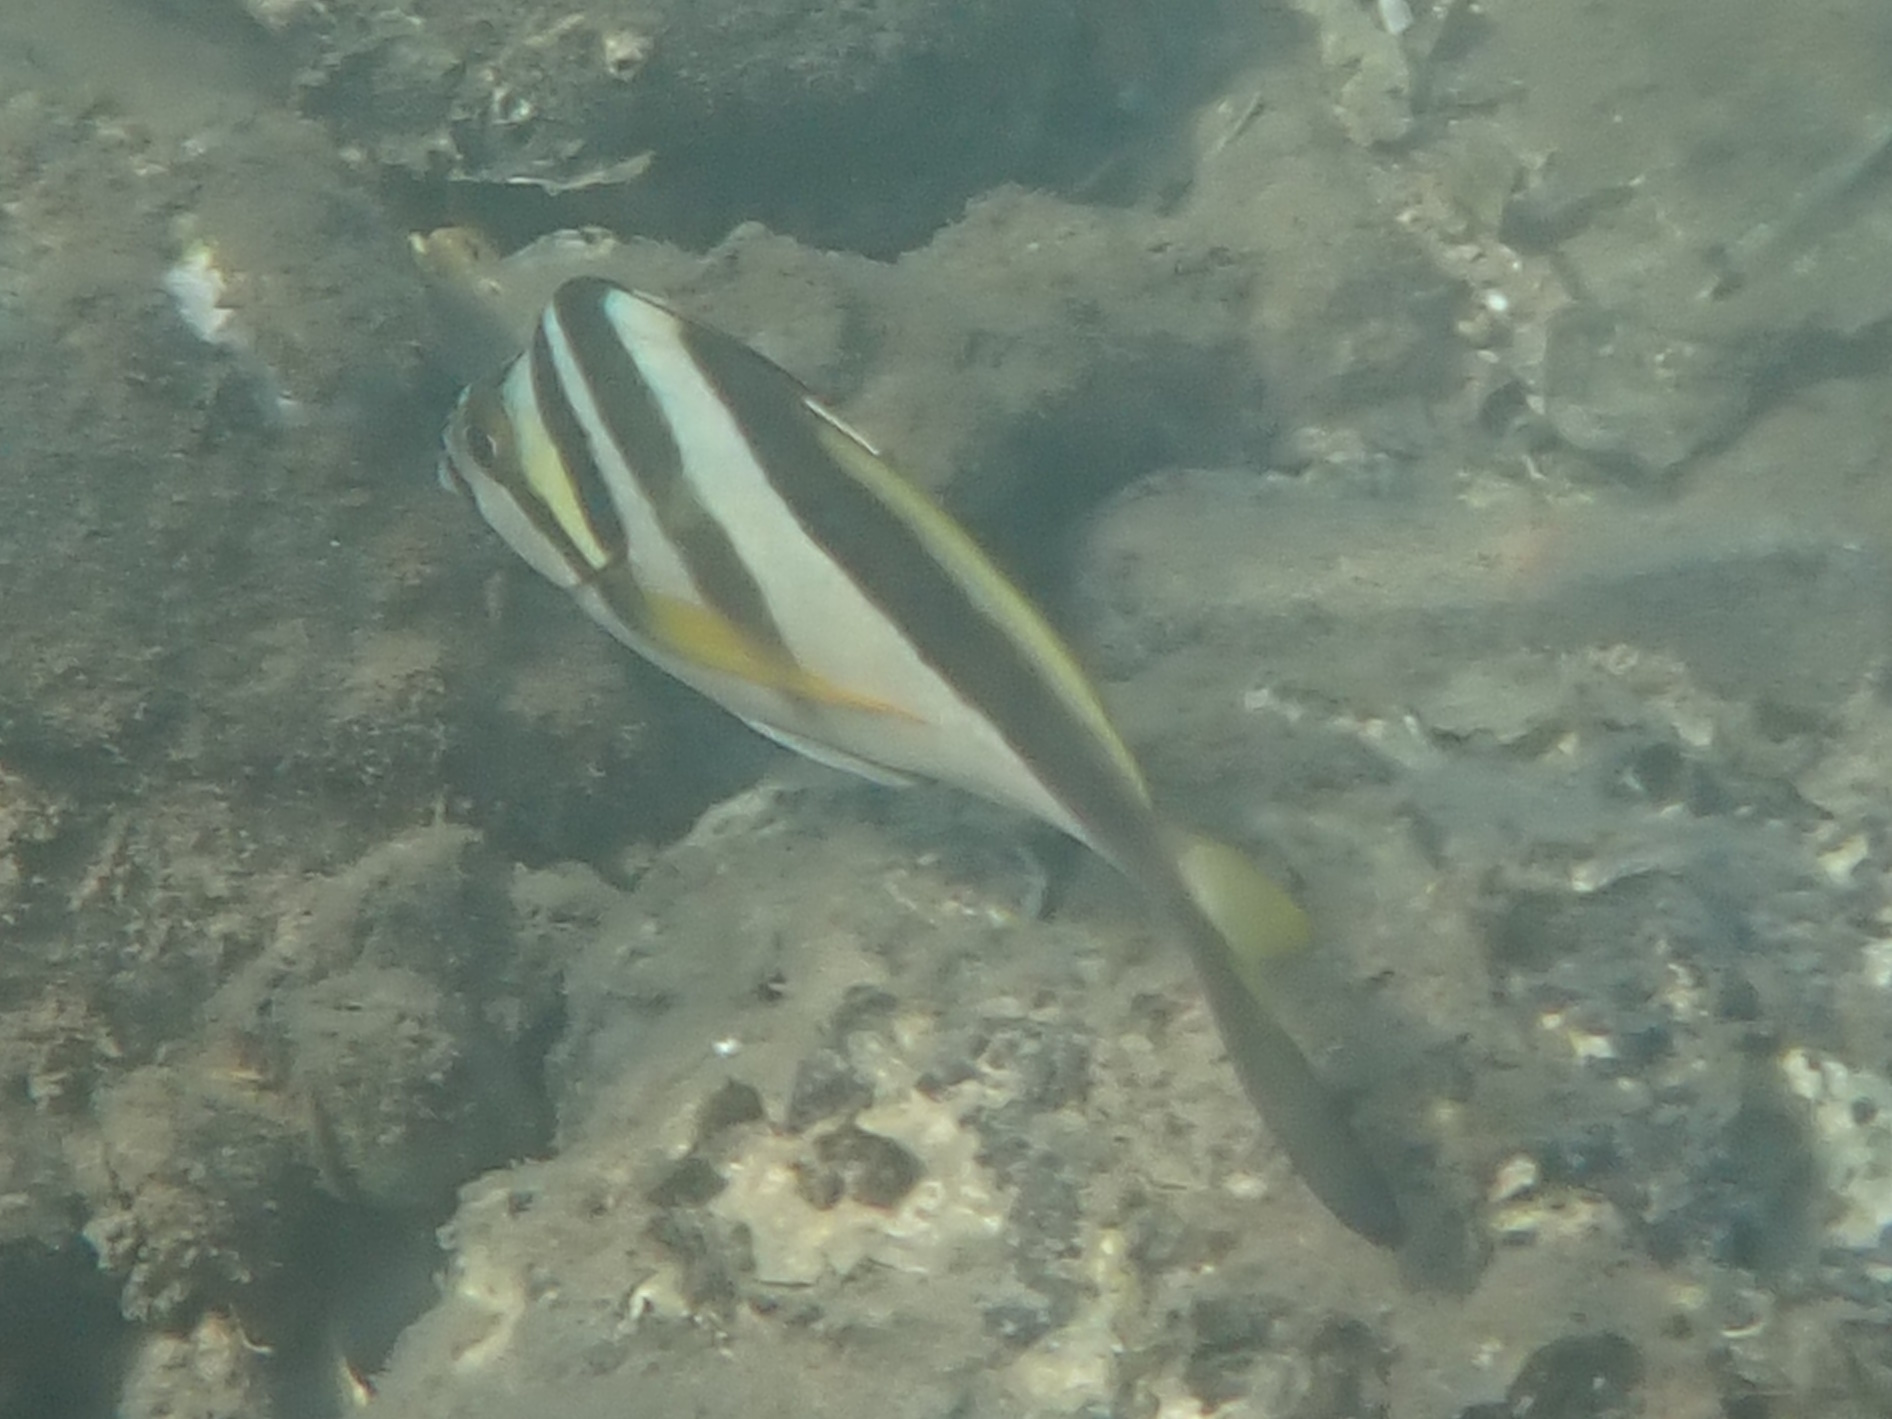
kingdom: Animalia
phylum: Chordata
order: Perciformes
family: Cheilodactylidae
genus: Cheilodactylus
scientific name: Cheilodactylus vestitus
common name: Crested morwong
